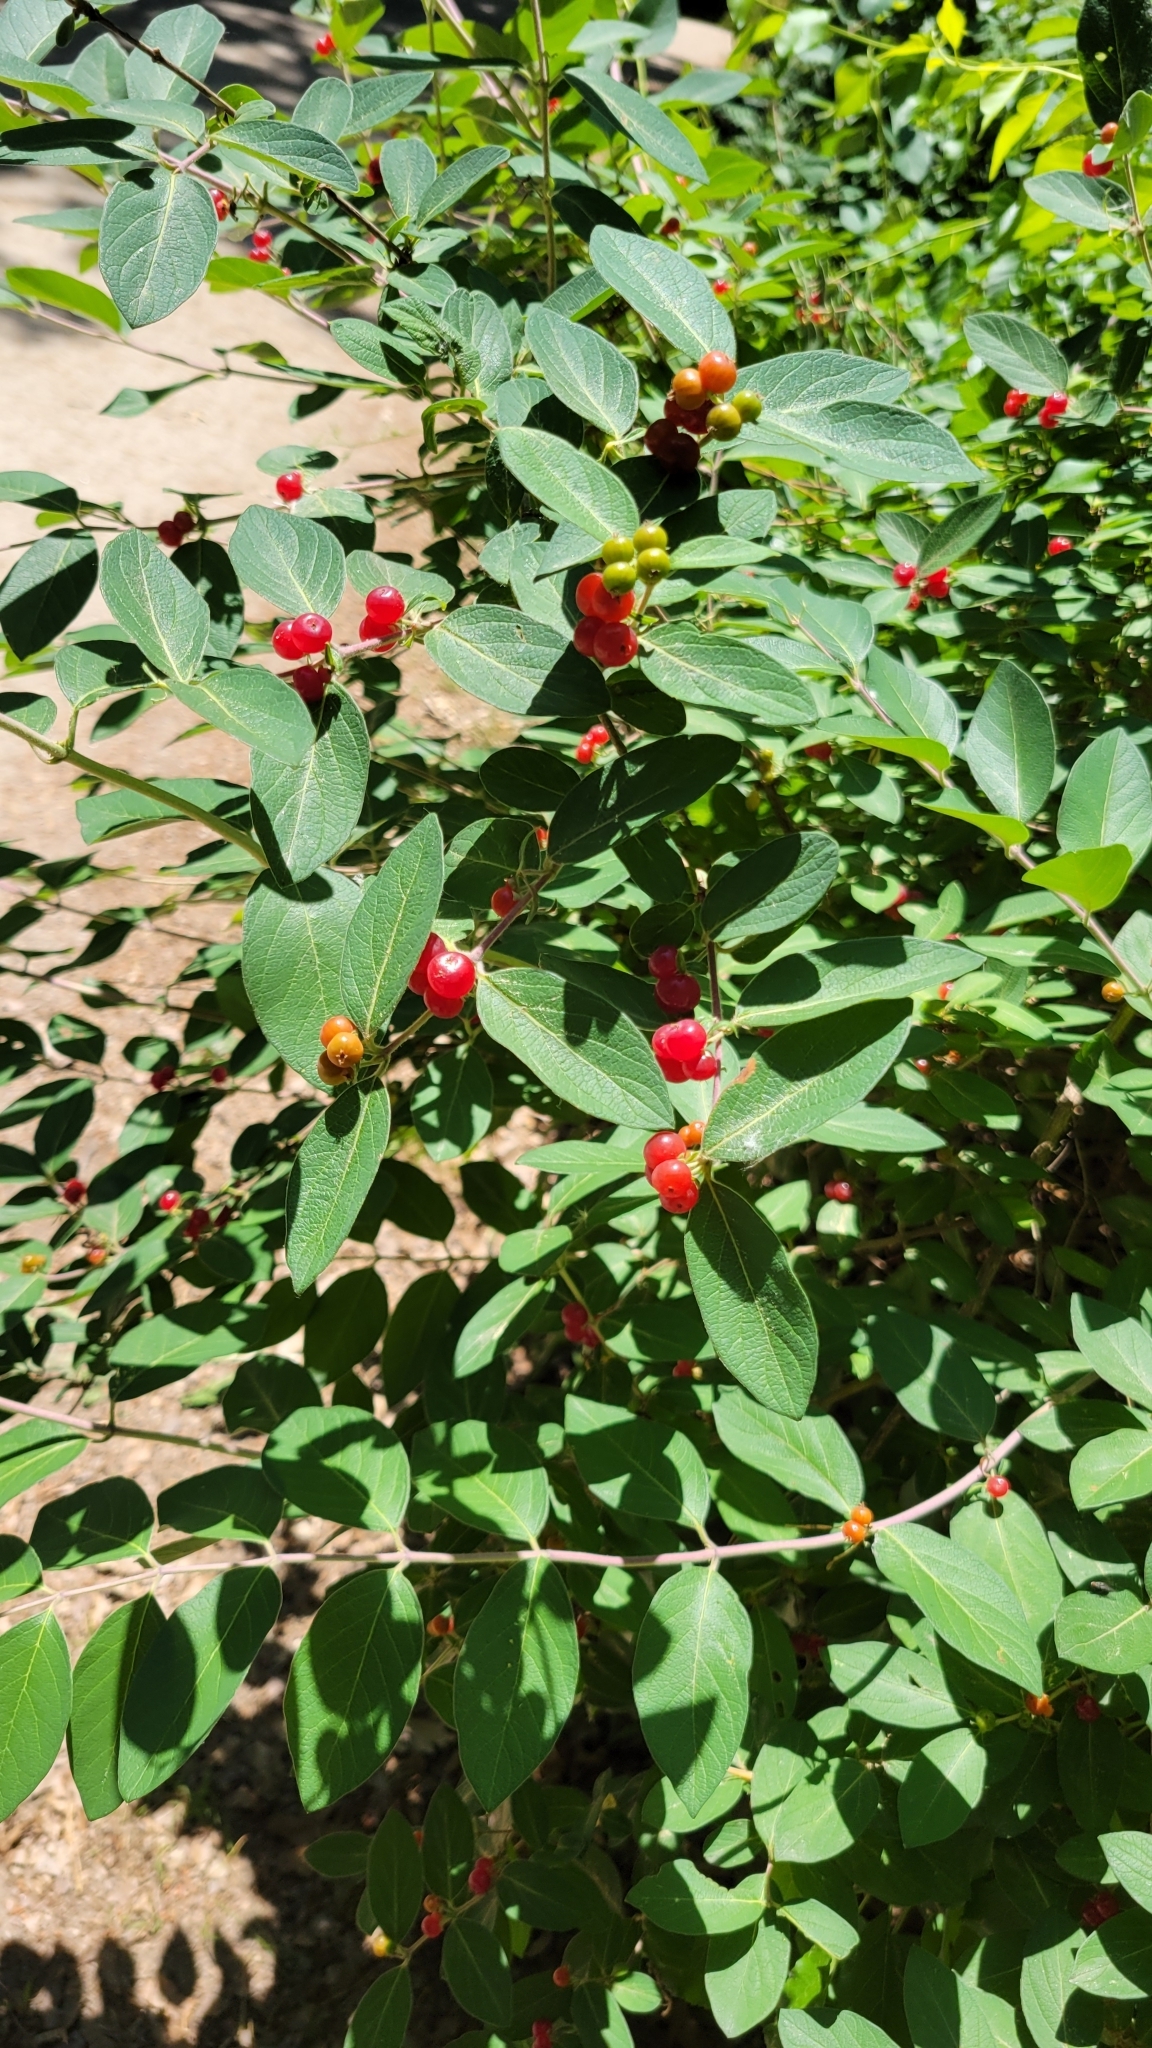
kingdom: Plantae
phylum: Tracheophyta
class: Magnoliopsida
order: Dipsacales
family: Caprifoliaceae
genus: Lonicera
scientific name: Lonicera
